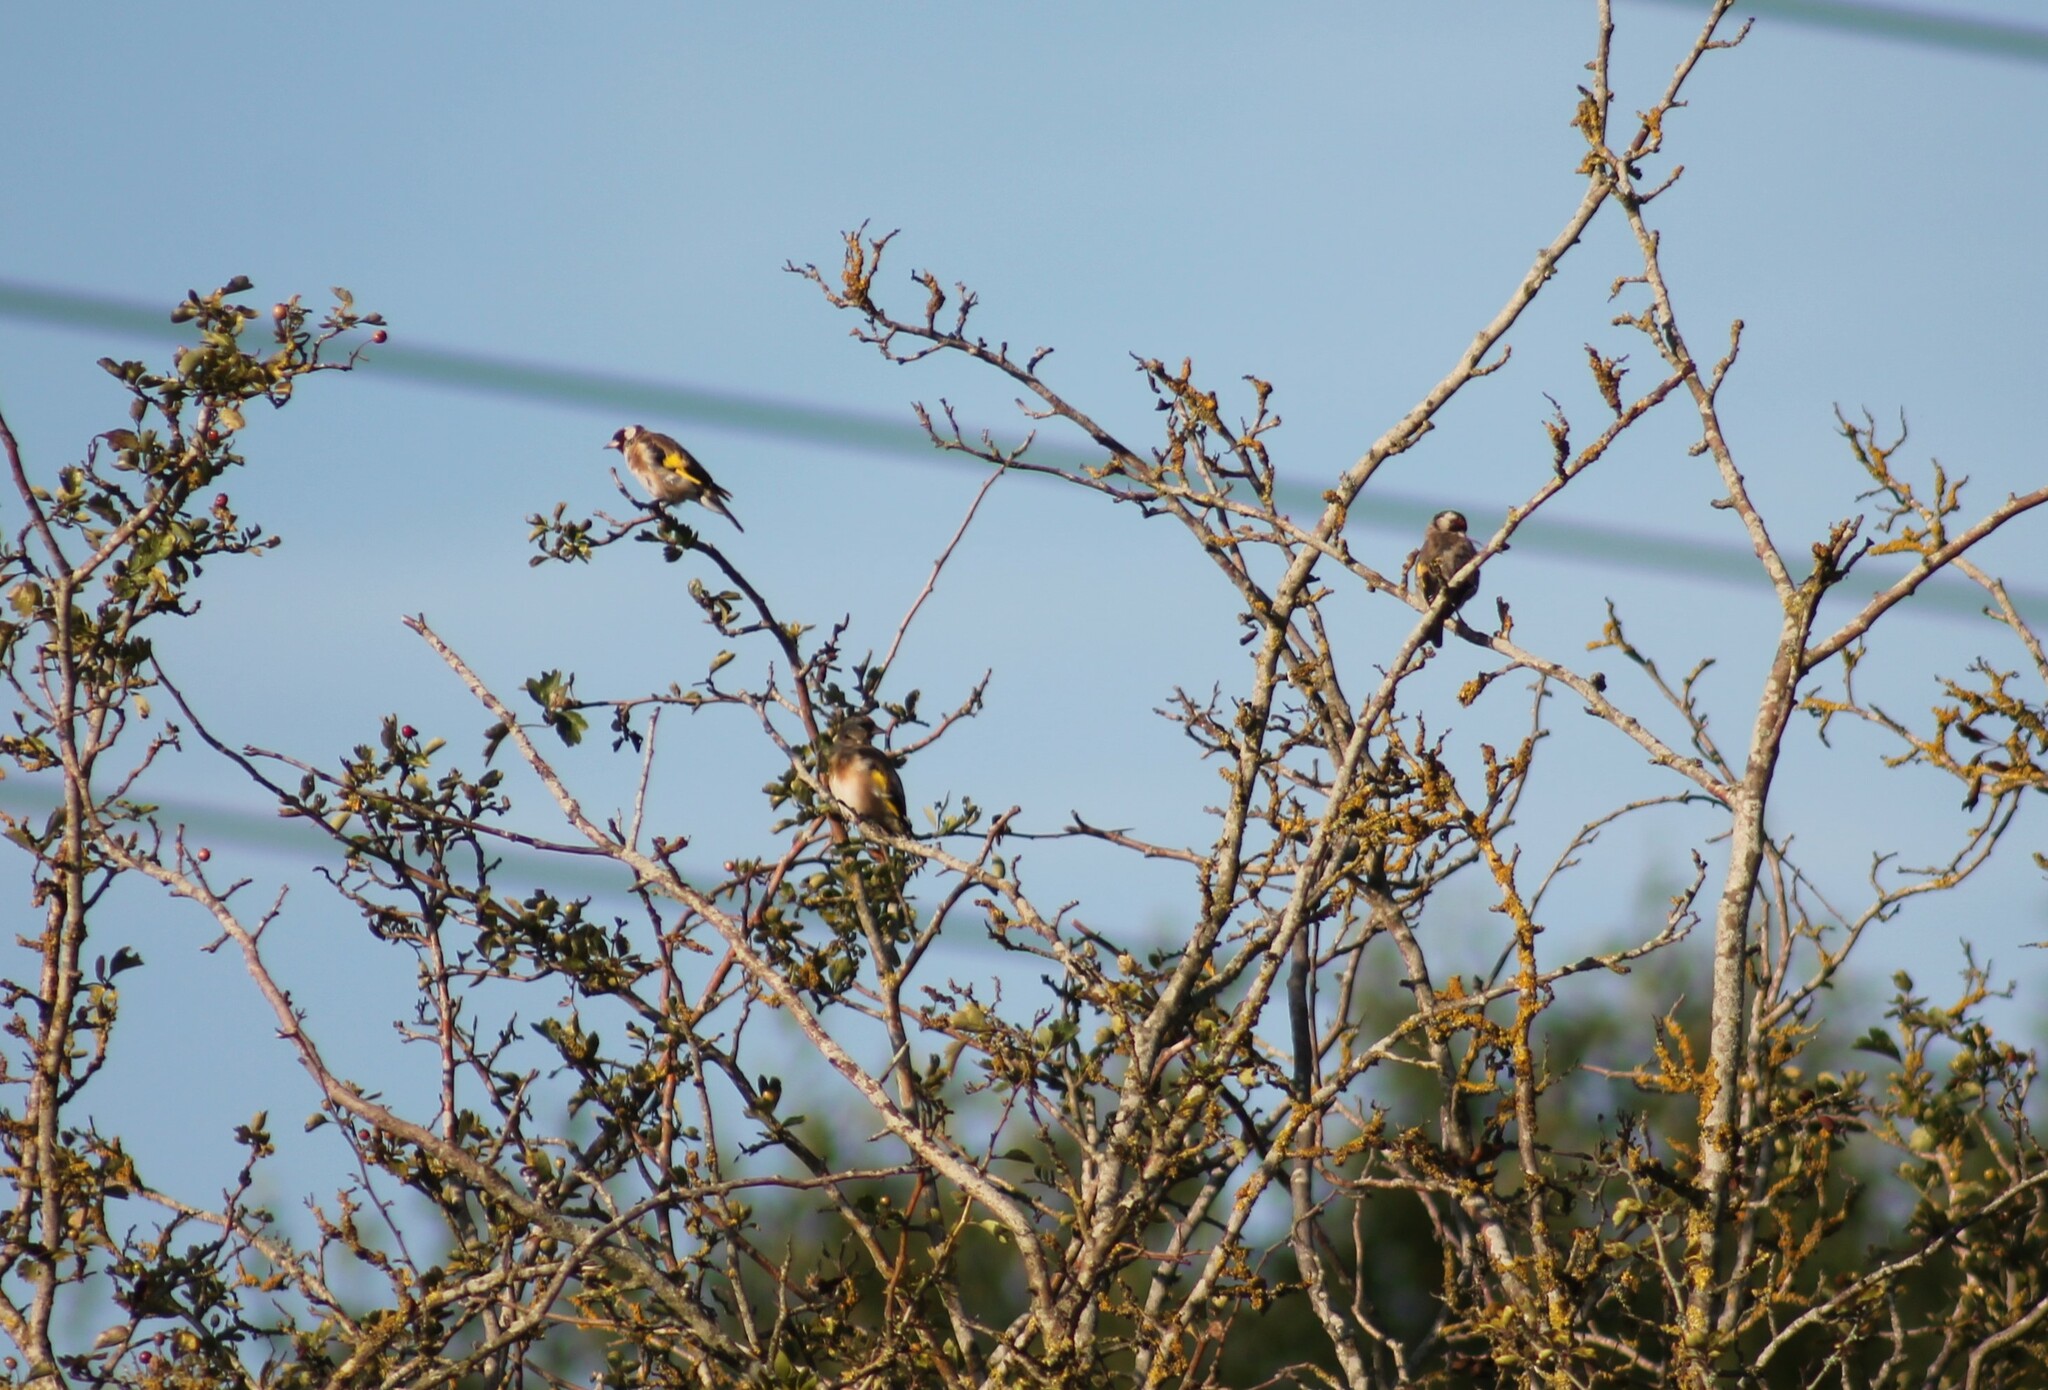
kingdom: Animalia
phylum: Chordata
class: Aves
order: Passeriformes
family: Fringillidae
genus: Carduelis
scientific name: Carduelis carduelis
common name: European goldfinch
